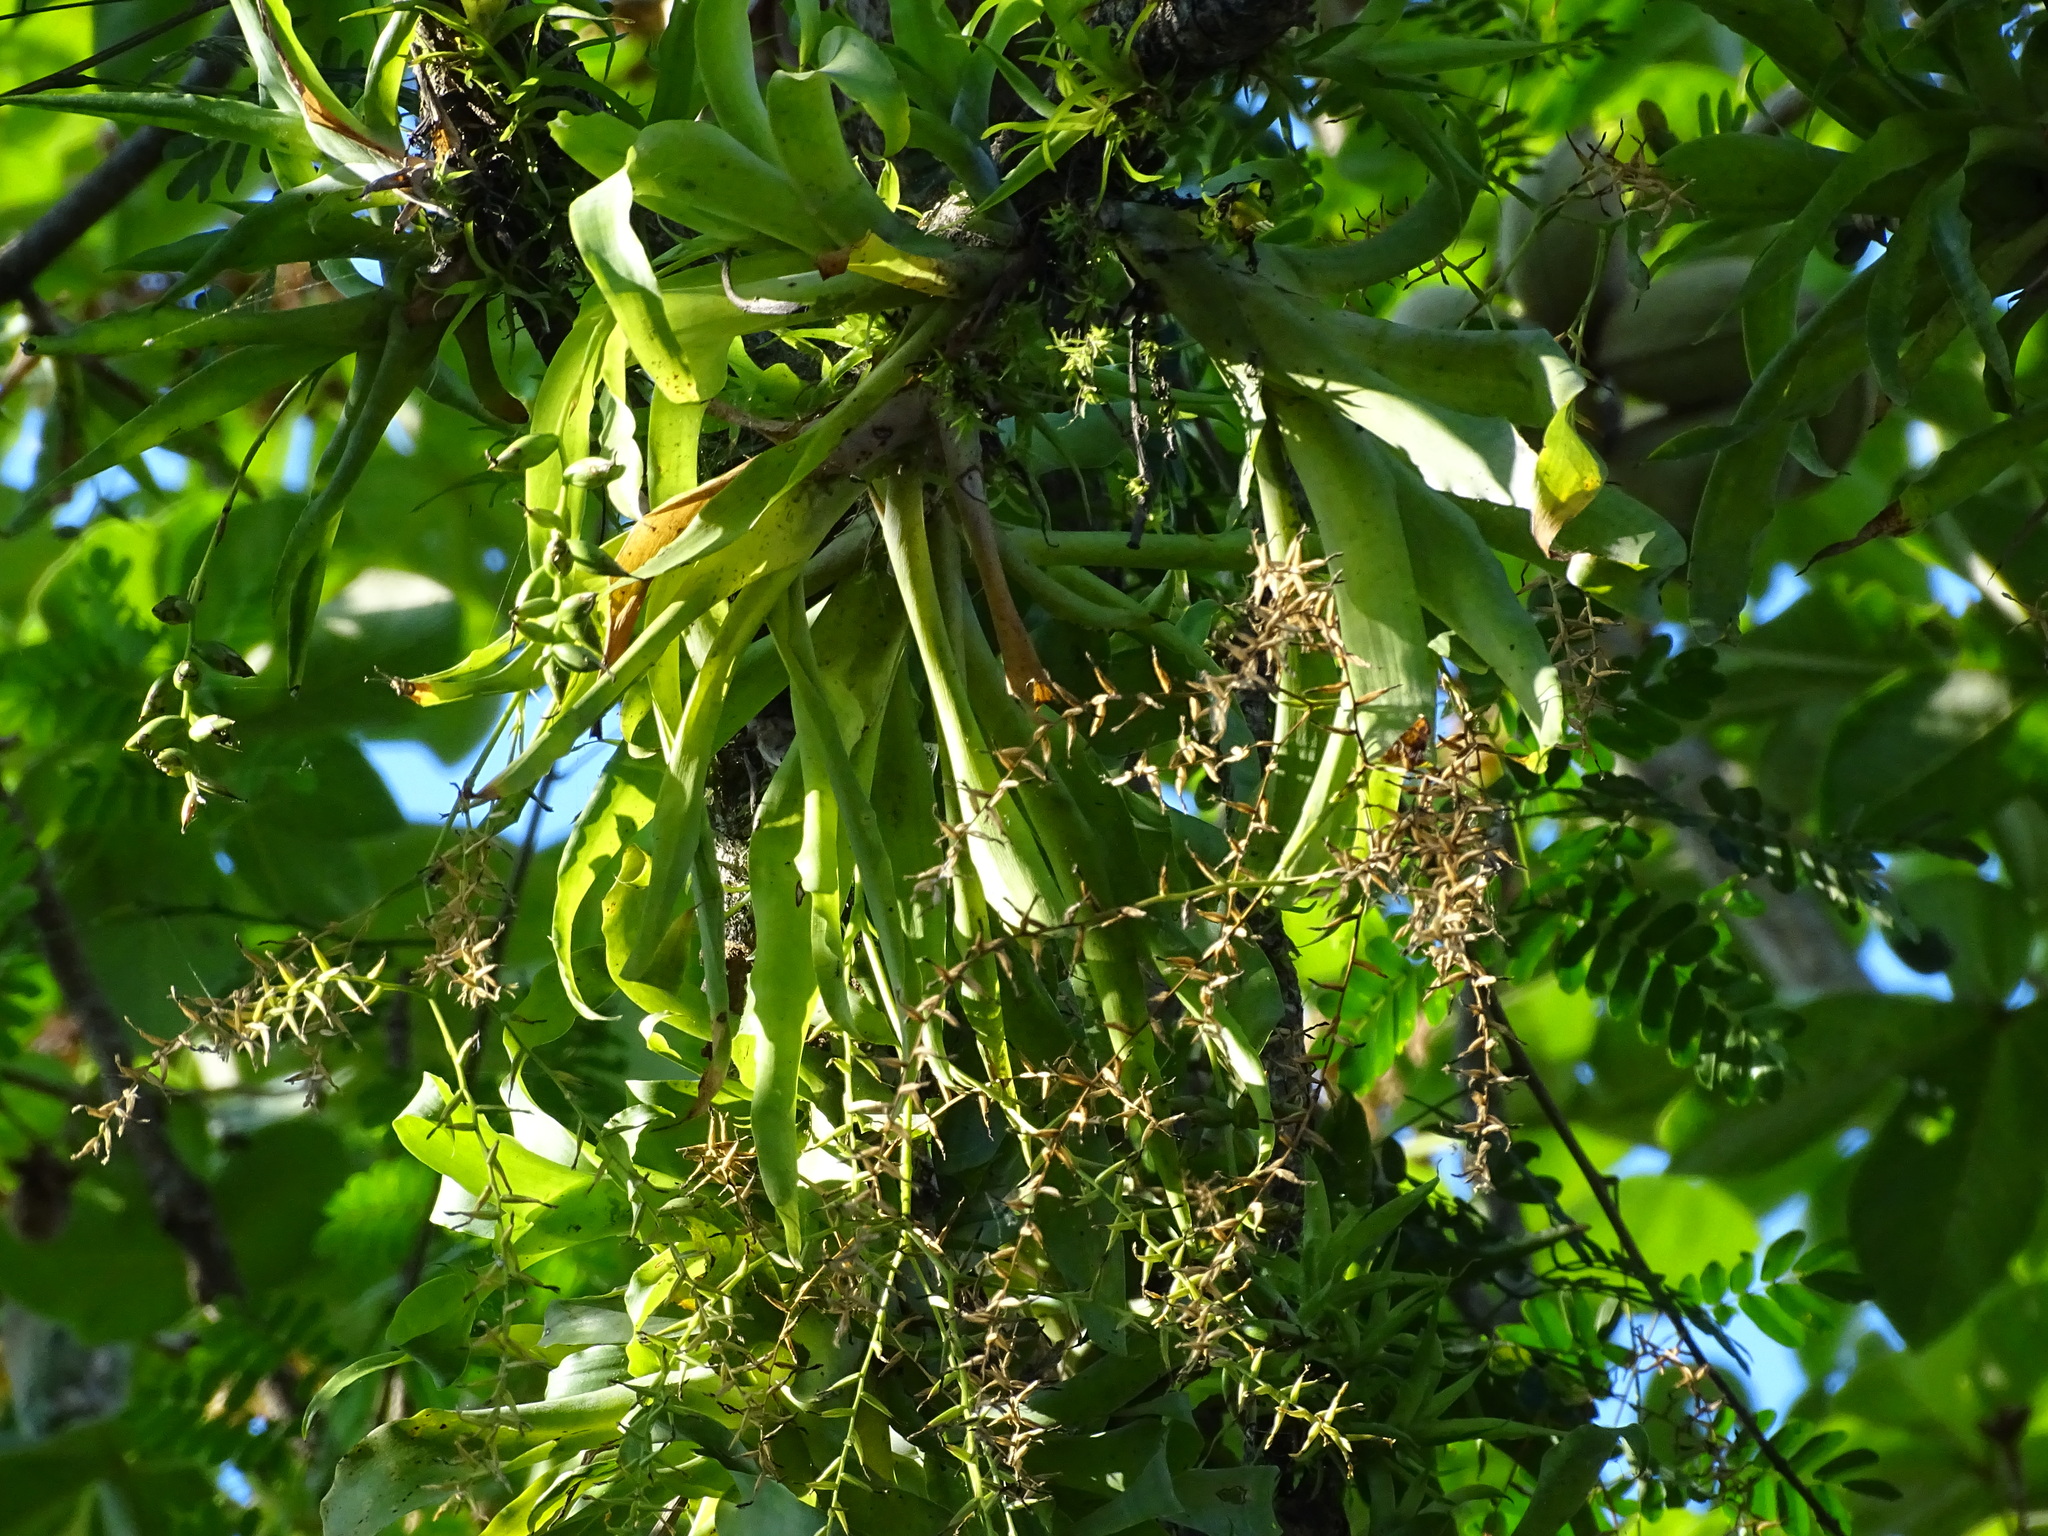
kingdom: Plantae
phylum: Tracheophyta
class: Liliopsida
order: Poales
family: Bromeliaceae
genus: Catopsis
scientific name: Catopsis sessiliflora
